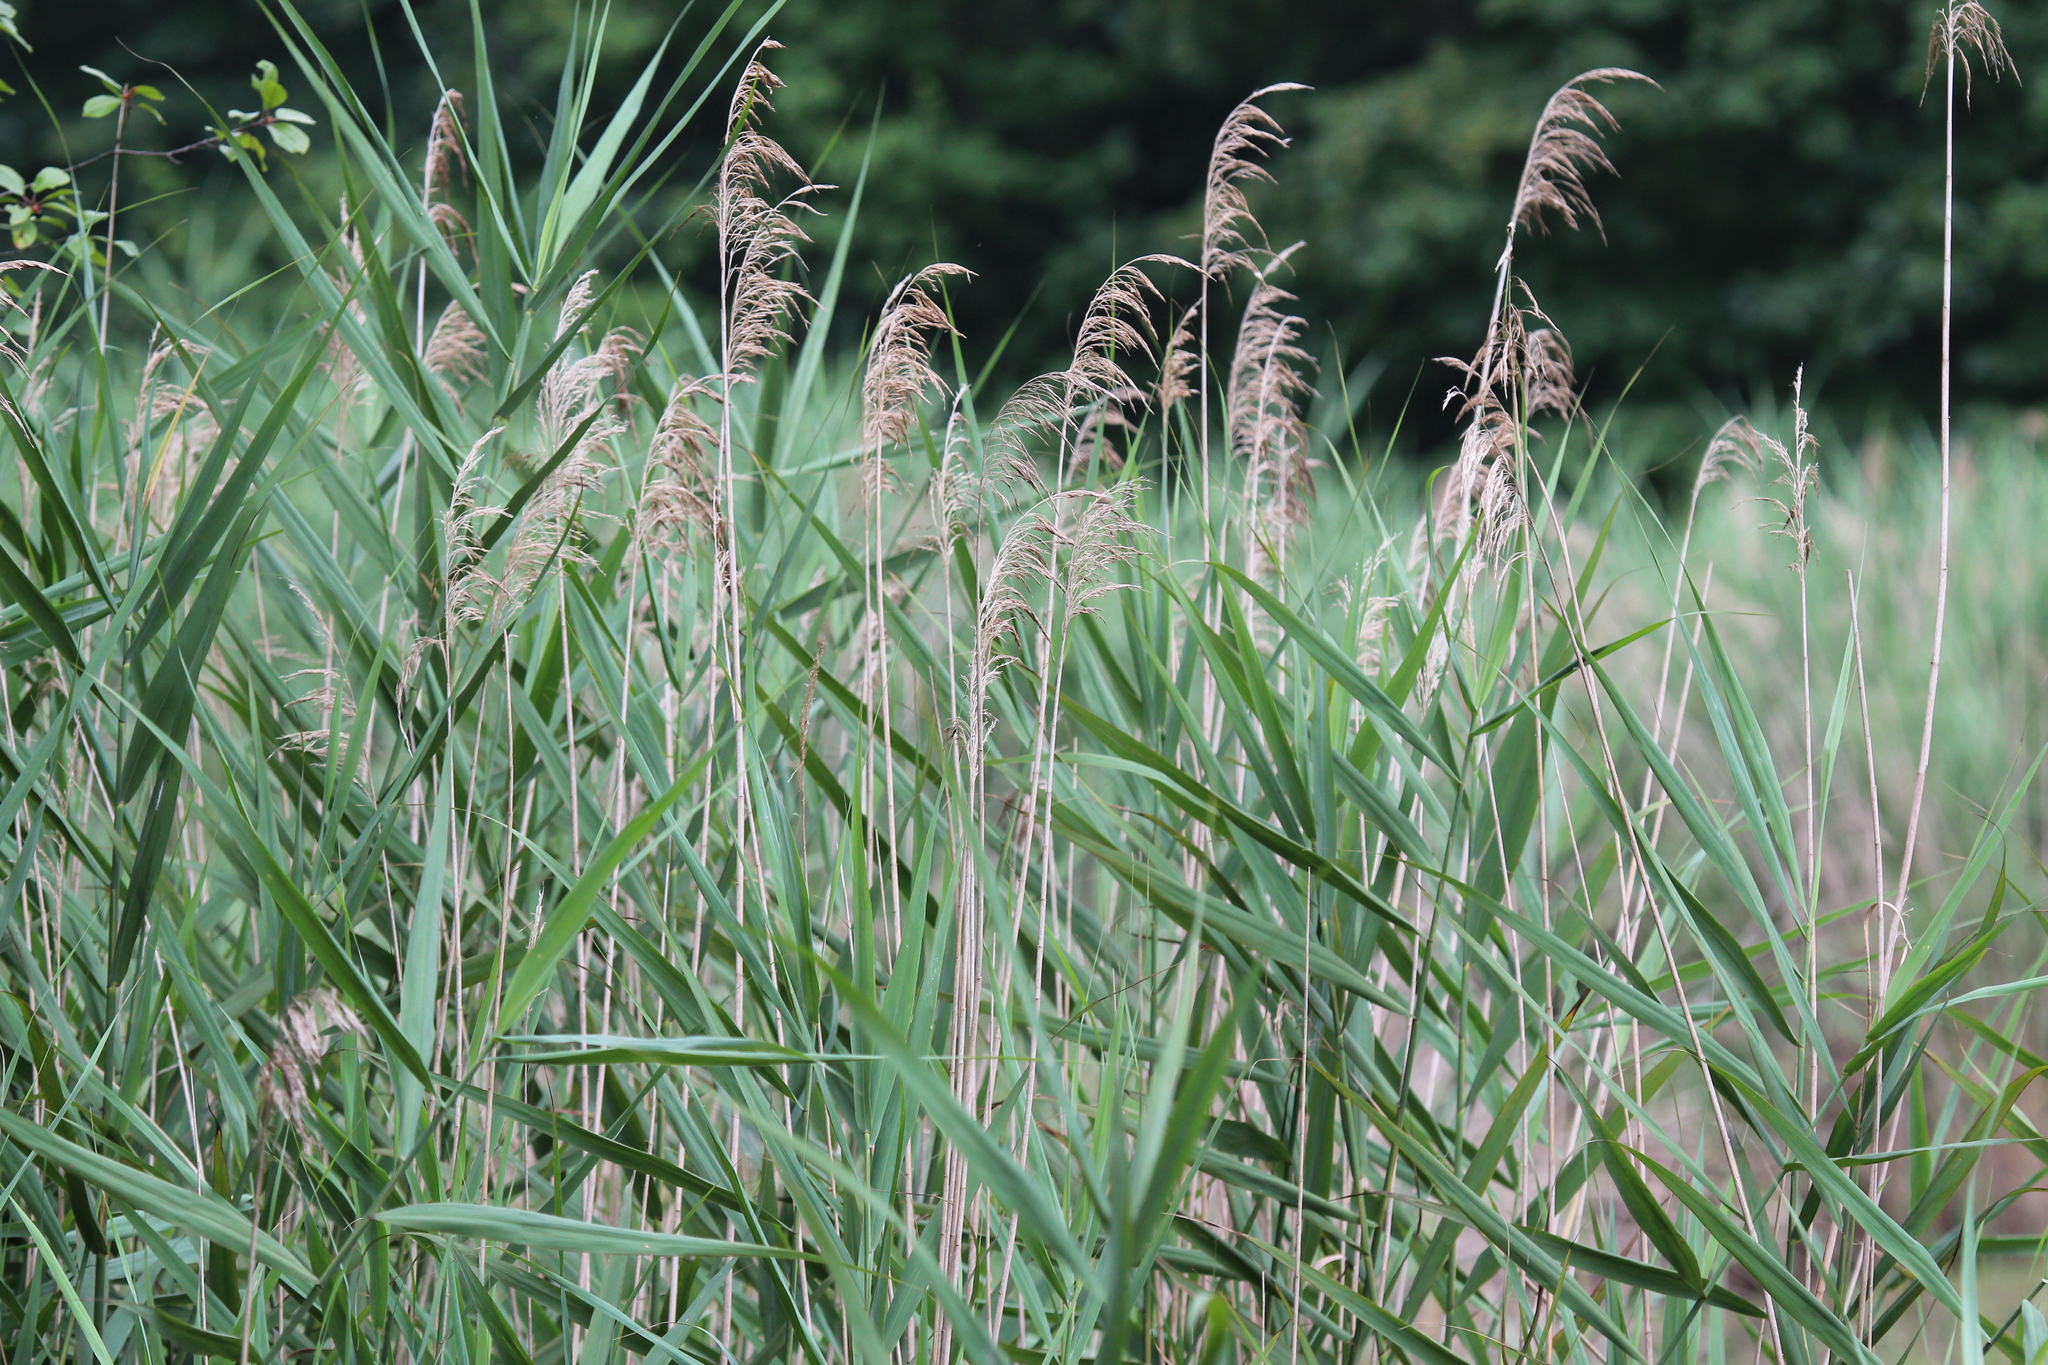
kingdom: Plantae
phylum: Tracheophyta
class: Liliopsida
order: Poales
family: Poaceae
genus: Phragmites
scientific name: Phragmites australis
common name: Common reed
